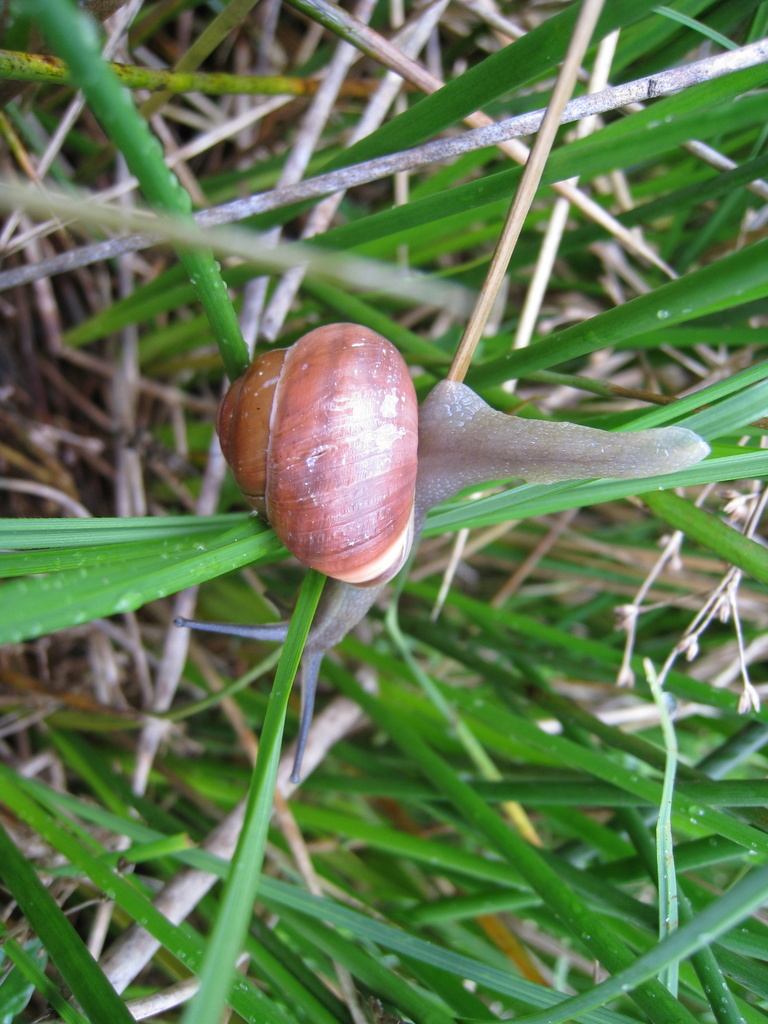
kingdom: Animalia
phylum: Mollusca
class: Gastropoda
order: Stylommatophora
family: Helicidae
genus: Cepaea
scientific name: Cepaea nemoralis
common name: Grovesnail
